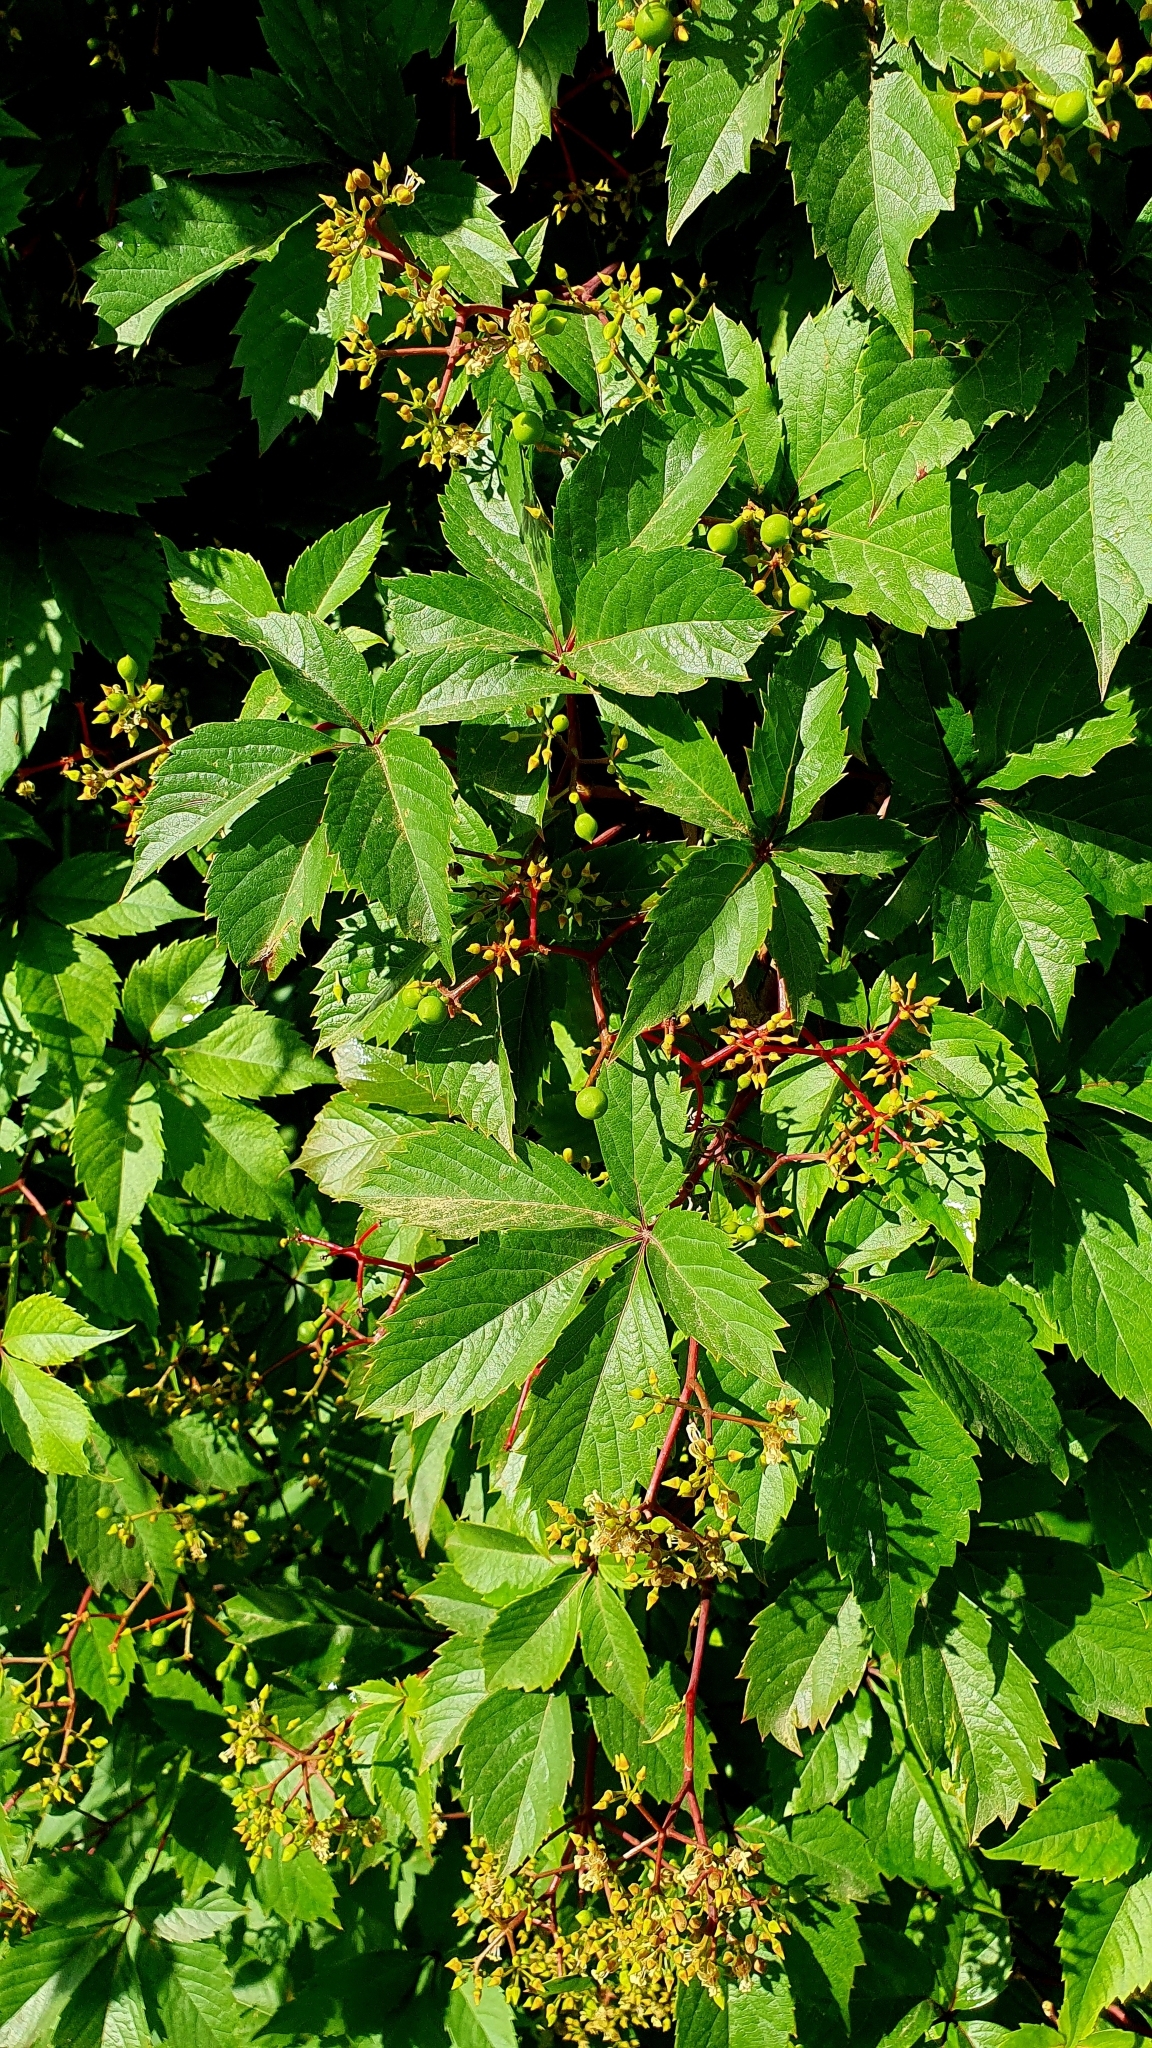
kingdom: Plantae
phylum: Tracheophyta
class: Magnoliopsida
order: Vitales
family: Vitaceae
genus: Parthenocissus
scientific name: Parthenocissus inserta
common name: False virginia-creeper
